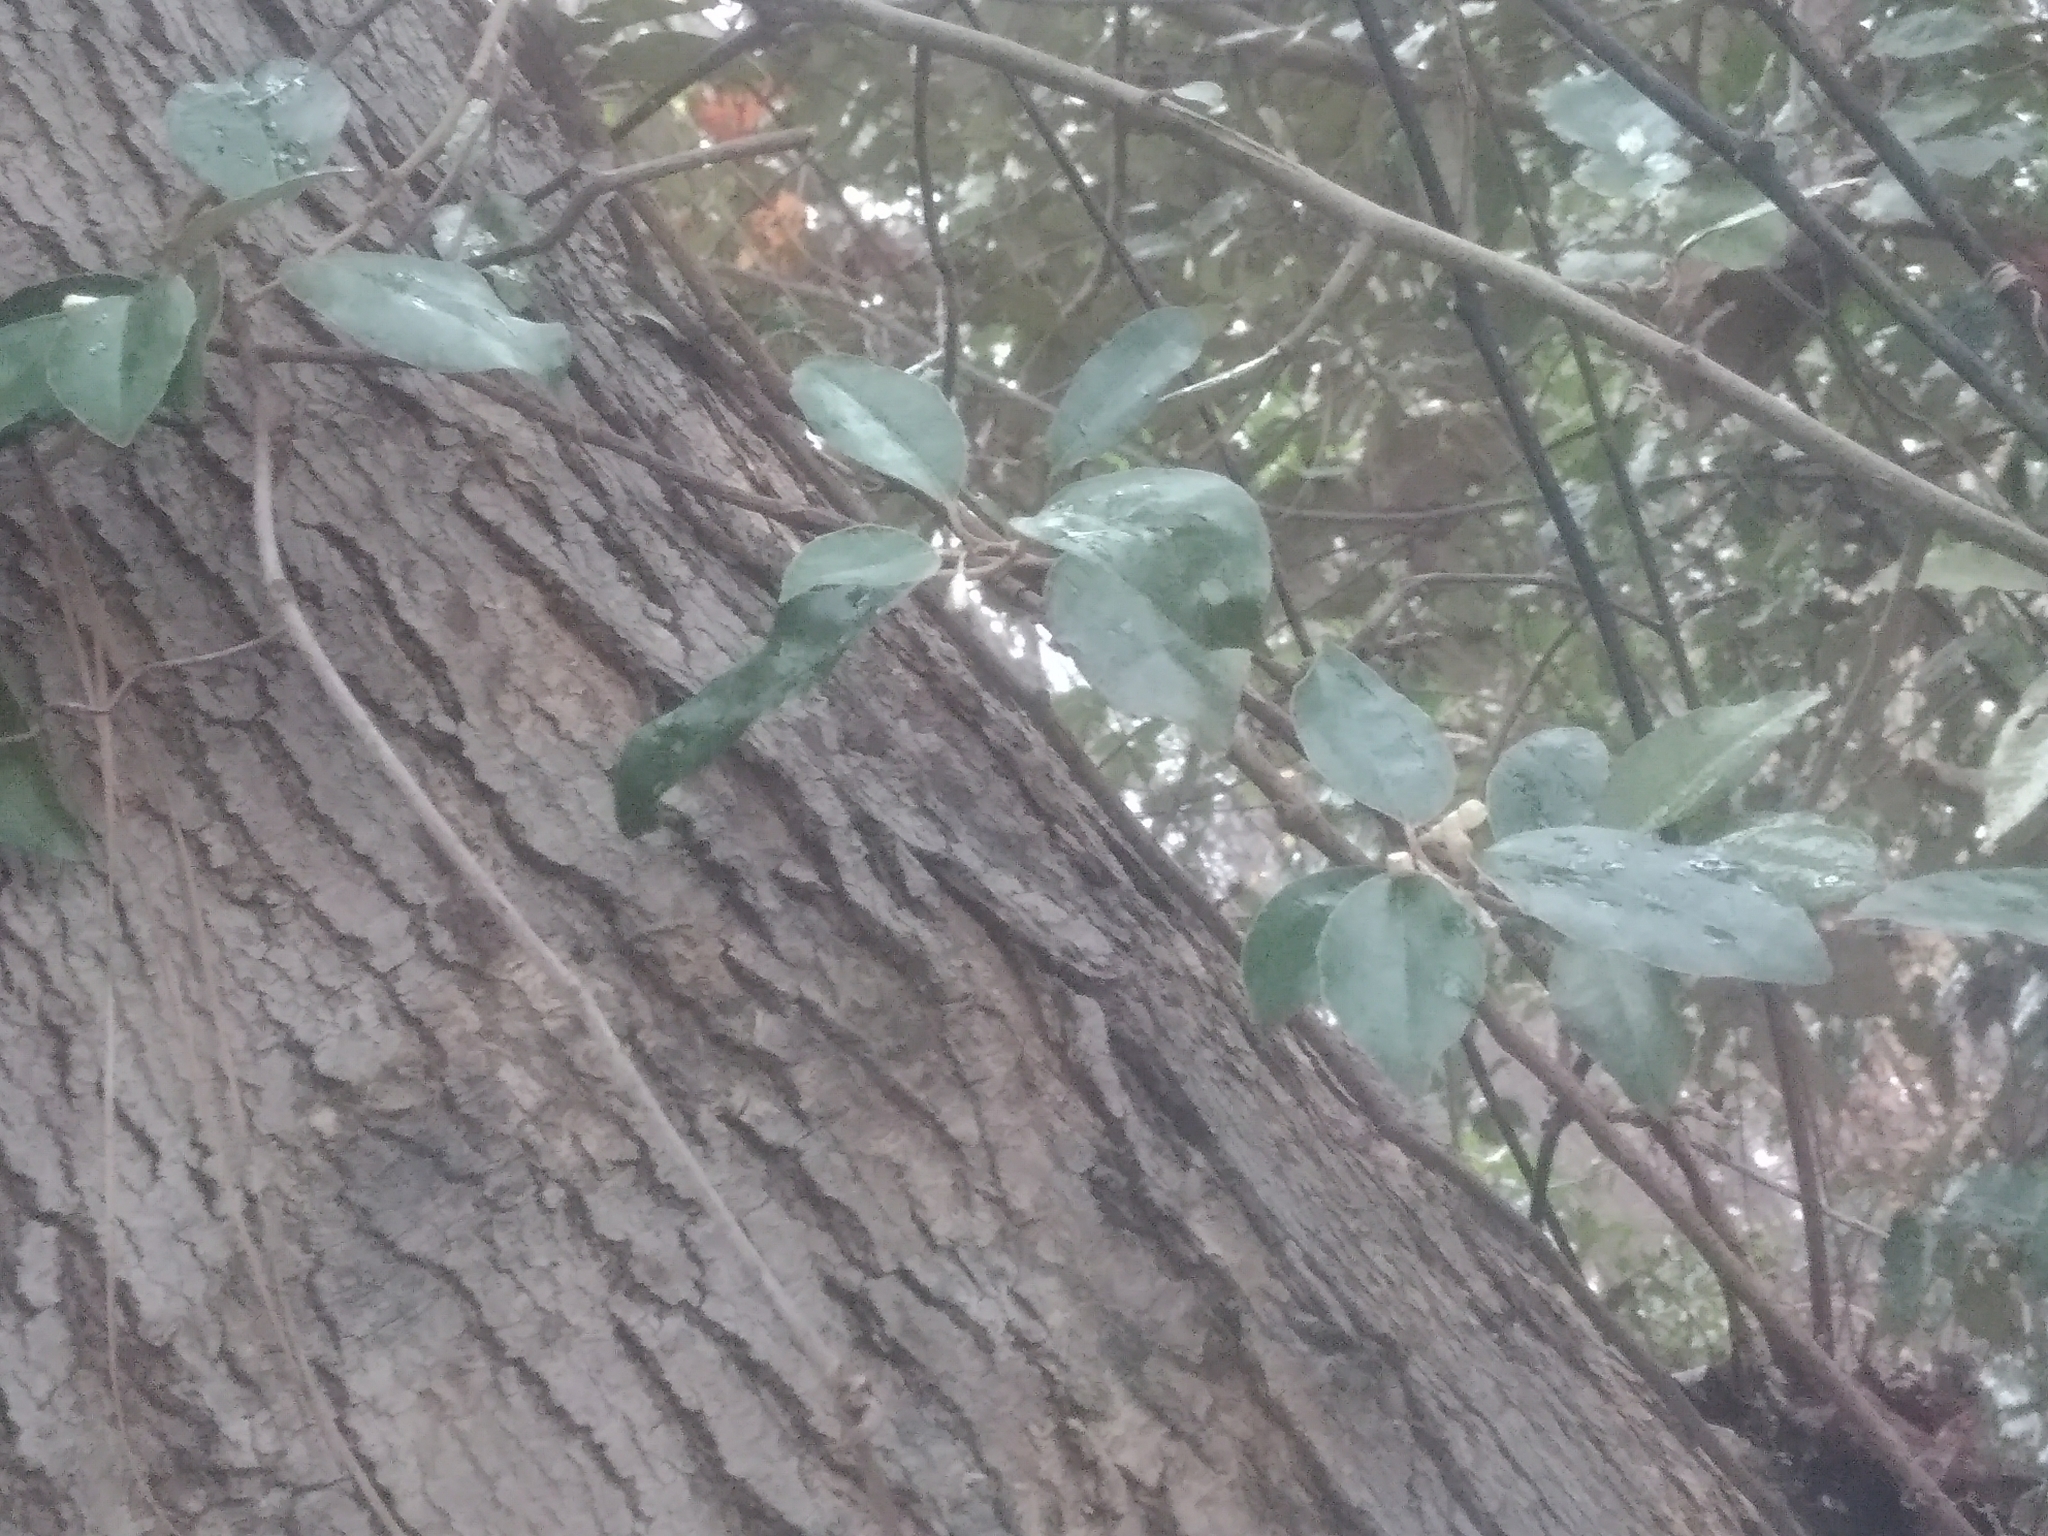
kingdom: Plantae
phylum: Tracheophyta
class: Magnoliopsida
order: Rosales
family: Elaeagnaceae
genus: Elaeagnus
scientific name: Elaeagnus pungens
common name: Spiny oleaster
